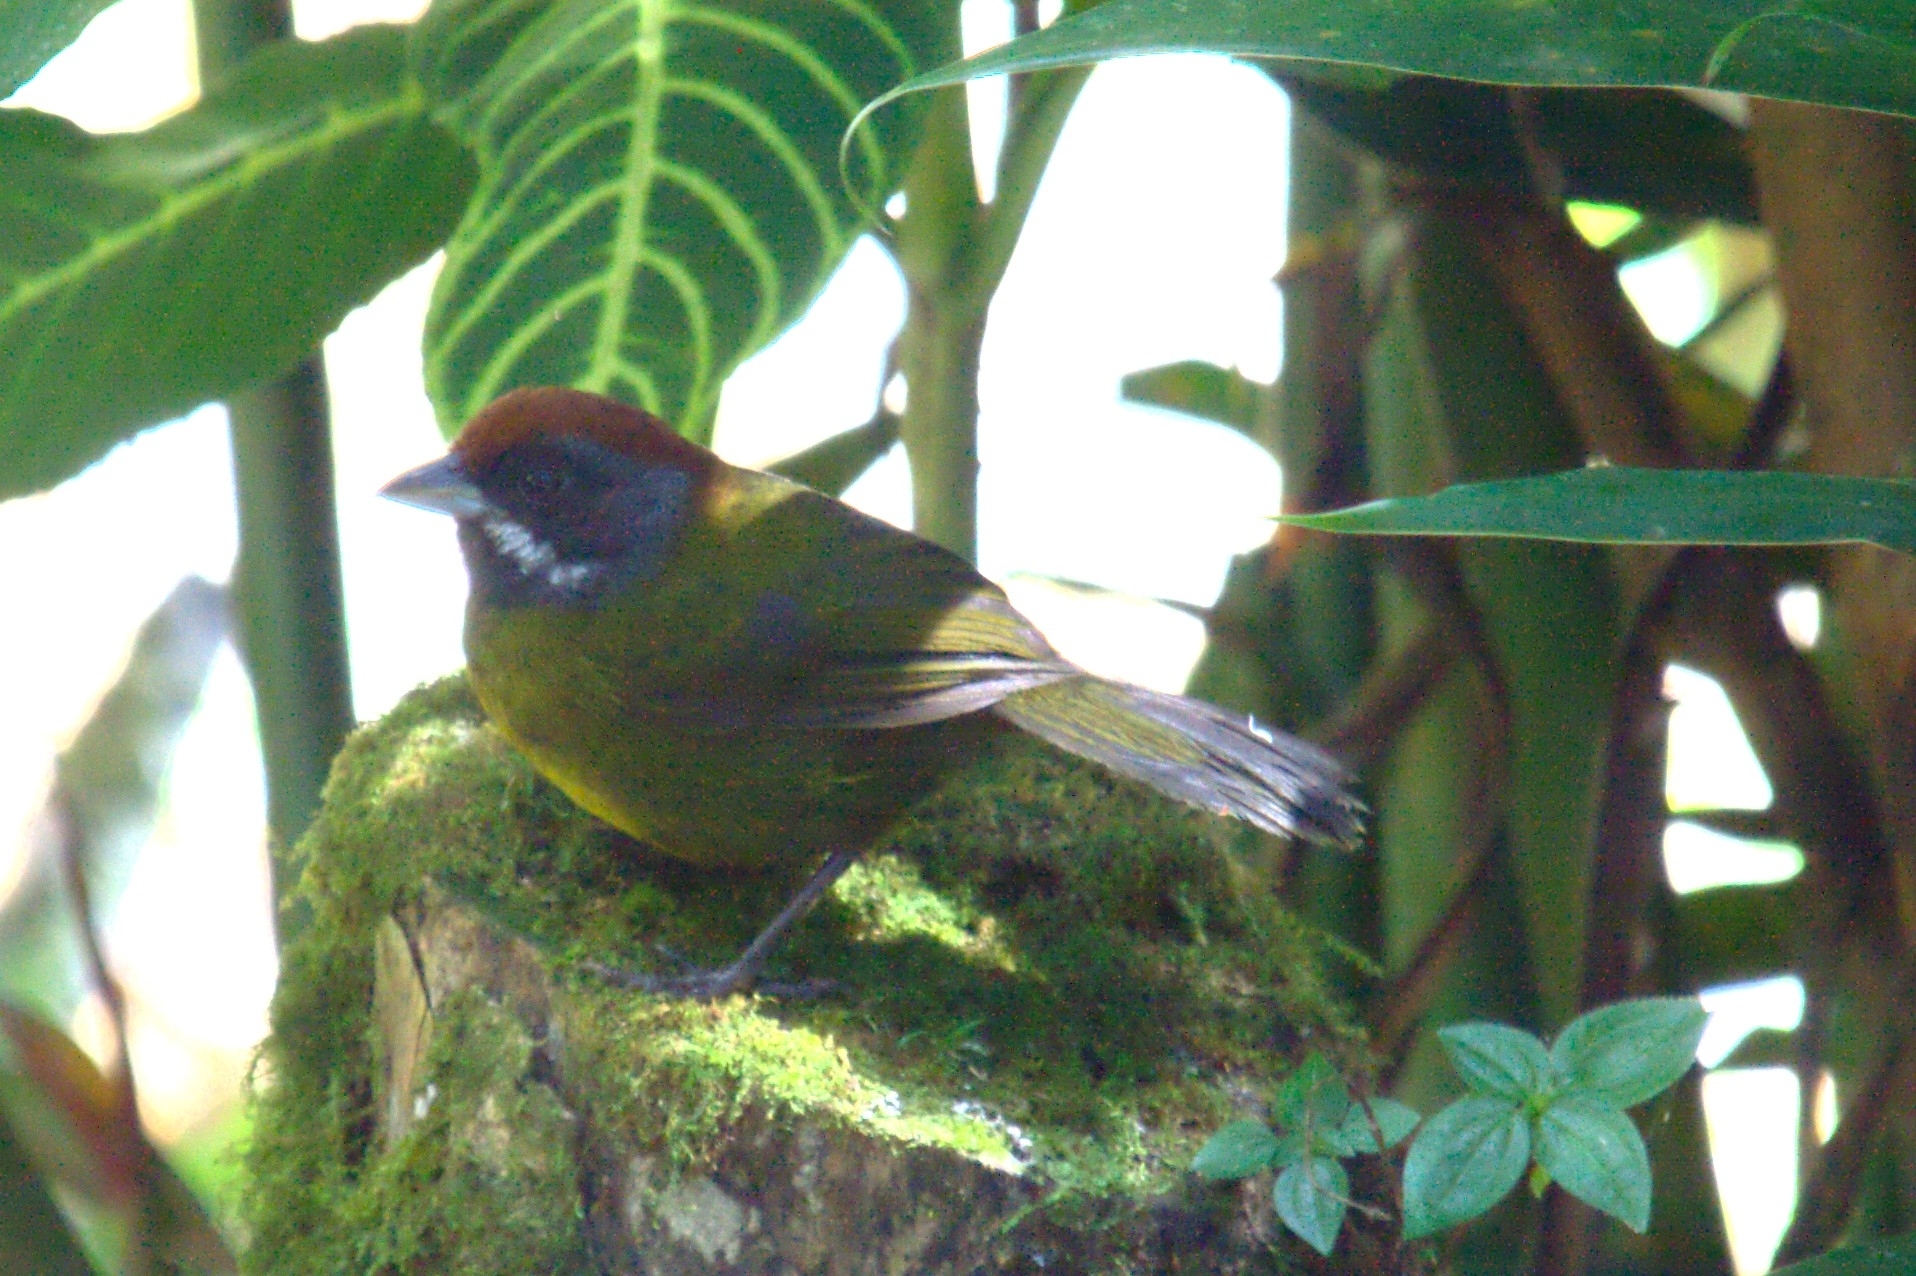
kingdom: Animalia
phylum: Chordata
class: Aves
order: Passeriformes
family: Passerellidae
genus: Arremon
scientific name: Arremon crassirostris
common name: Sooty-faced finch
